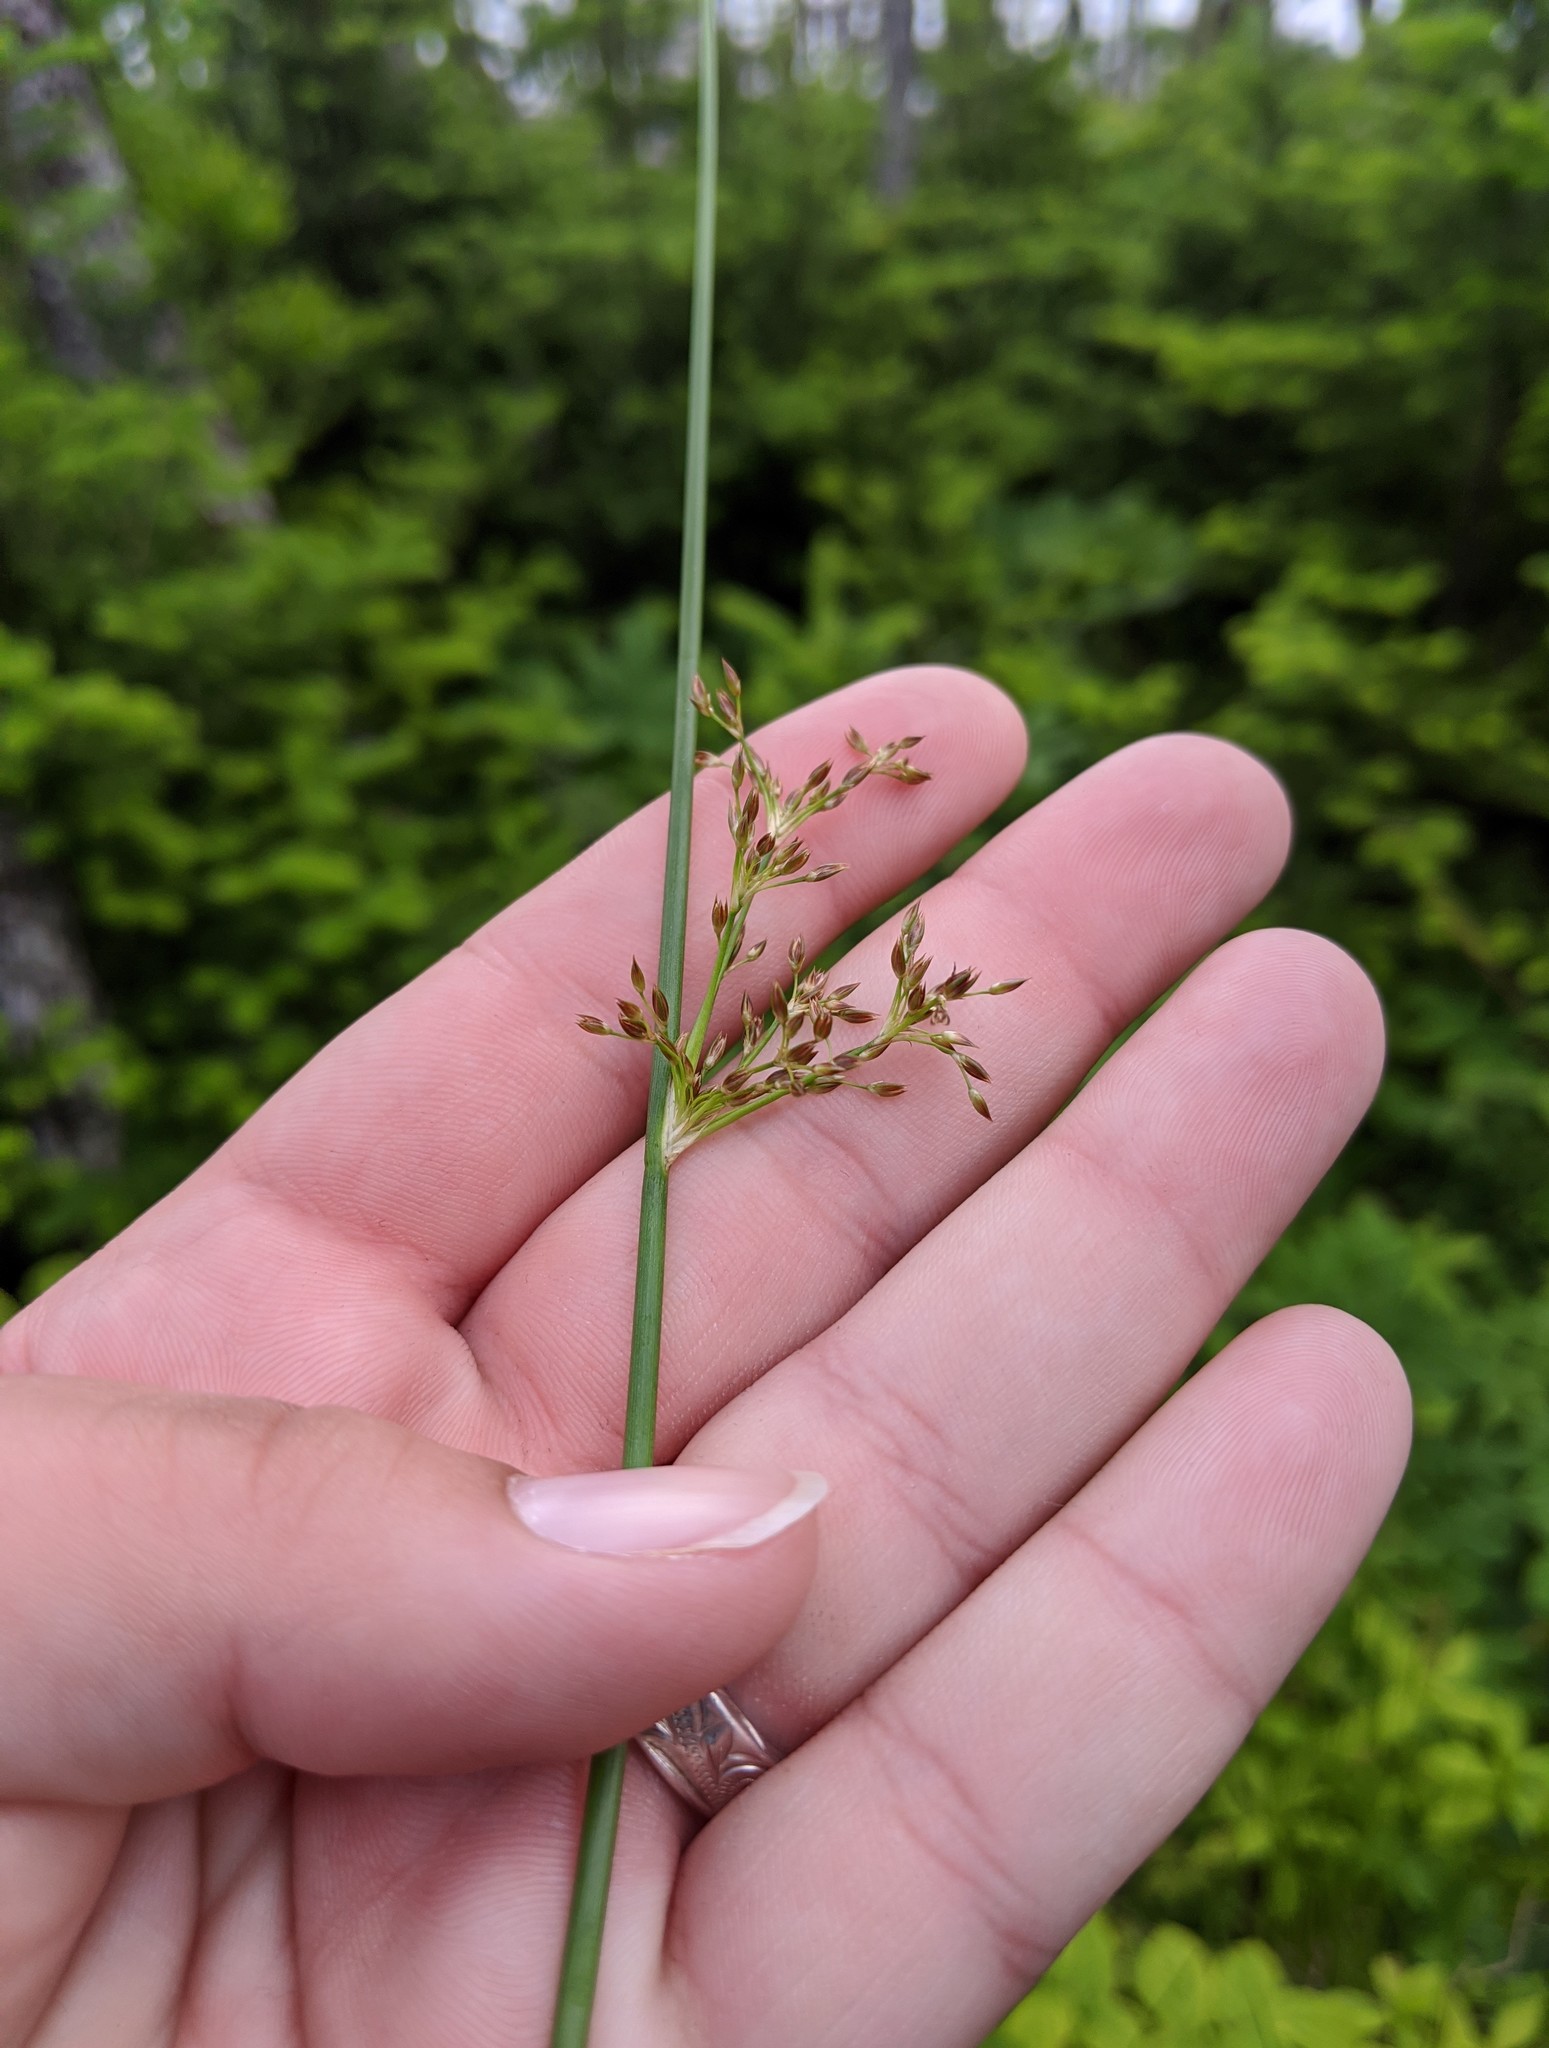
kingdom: Plantae
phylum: Tracheophyta
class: Liliopsida
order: Poales
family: Juncaceae
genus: Juncus
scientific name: Juncus effusus
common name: Soft rush
